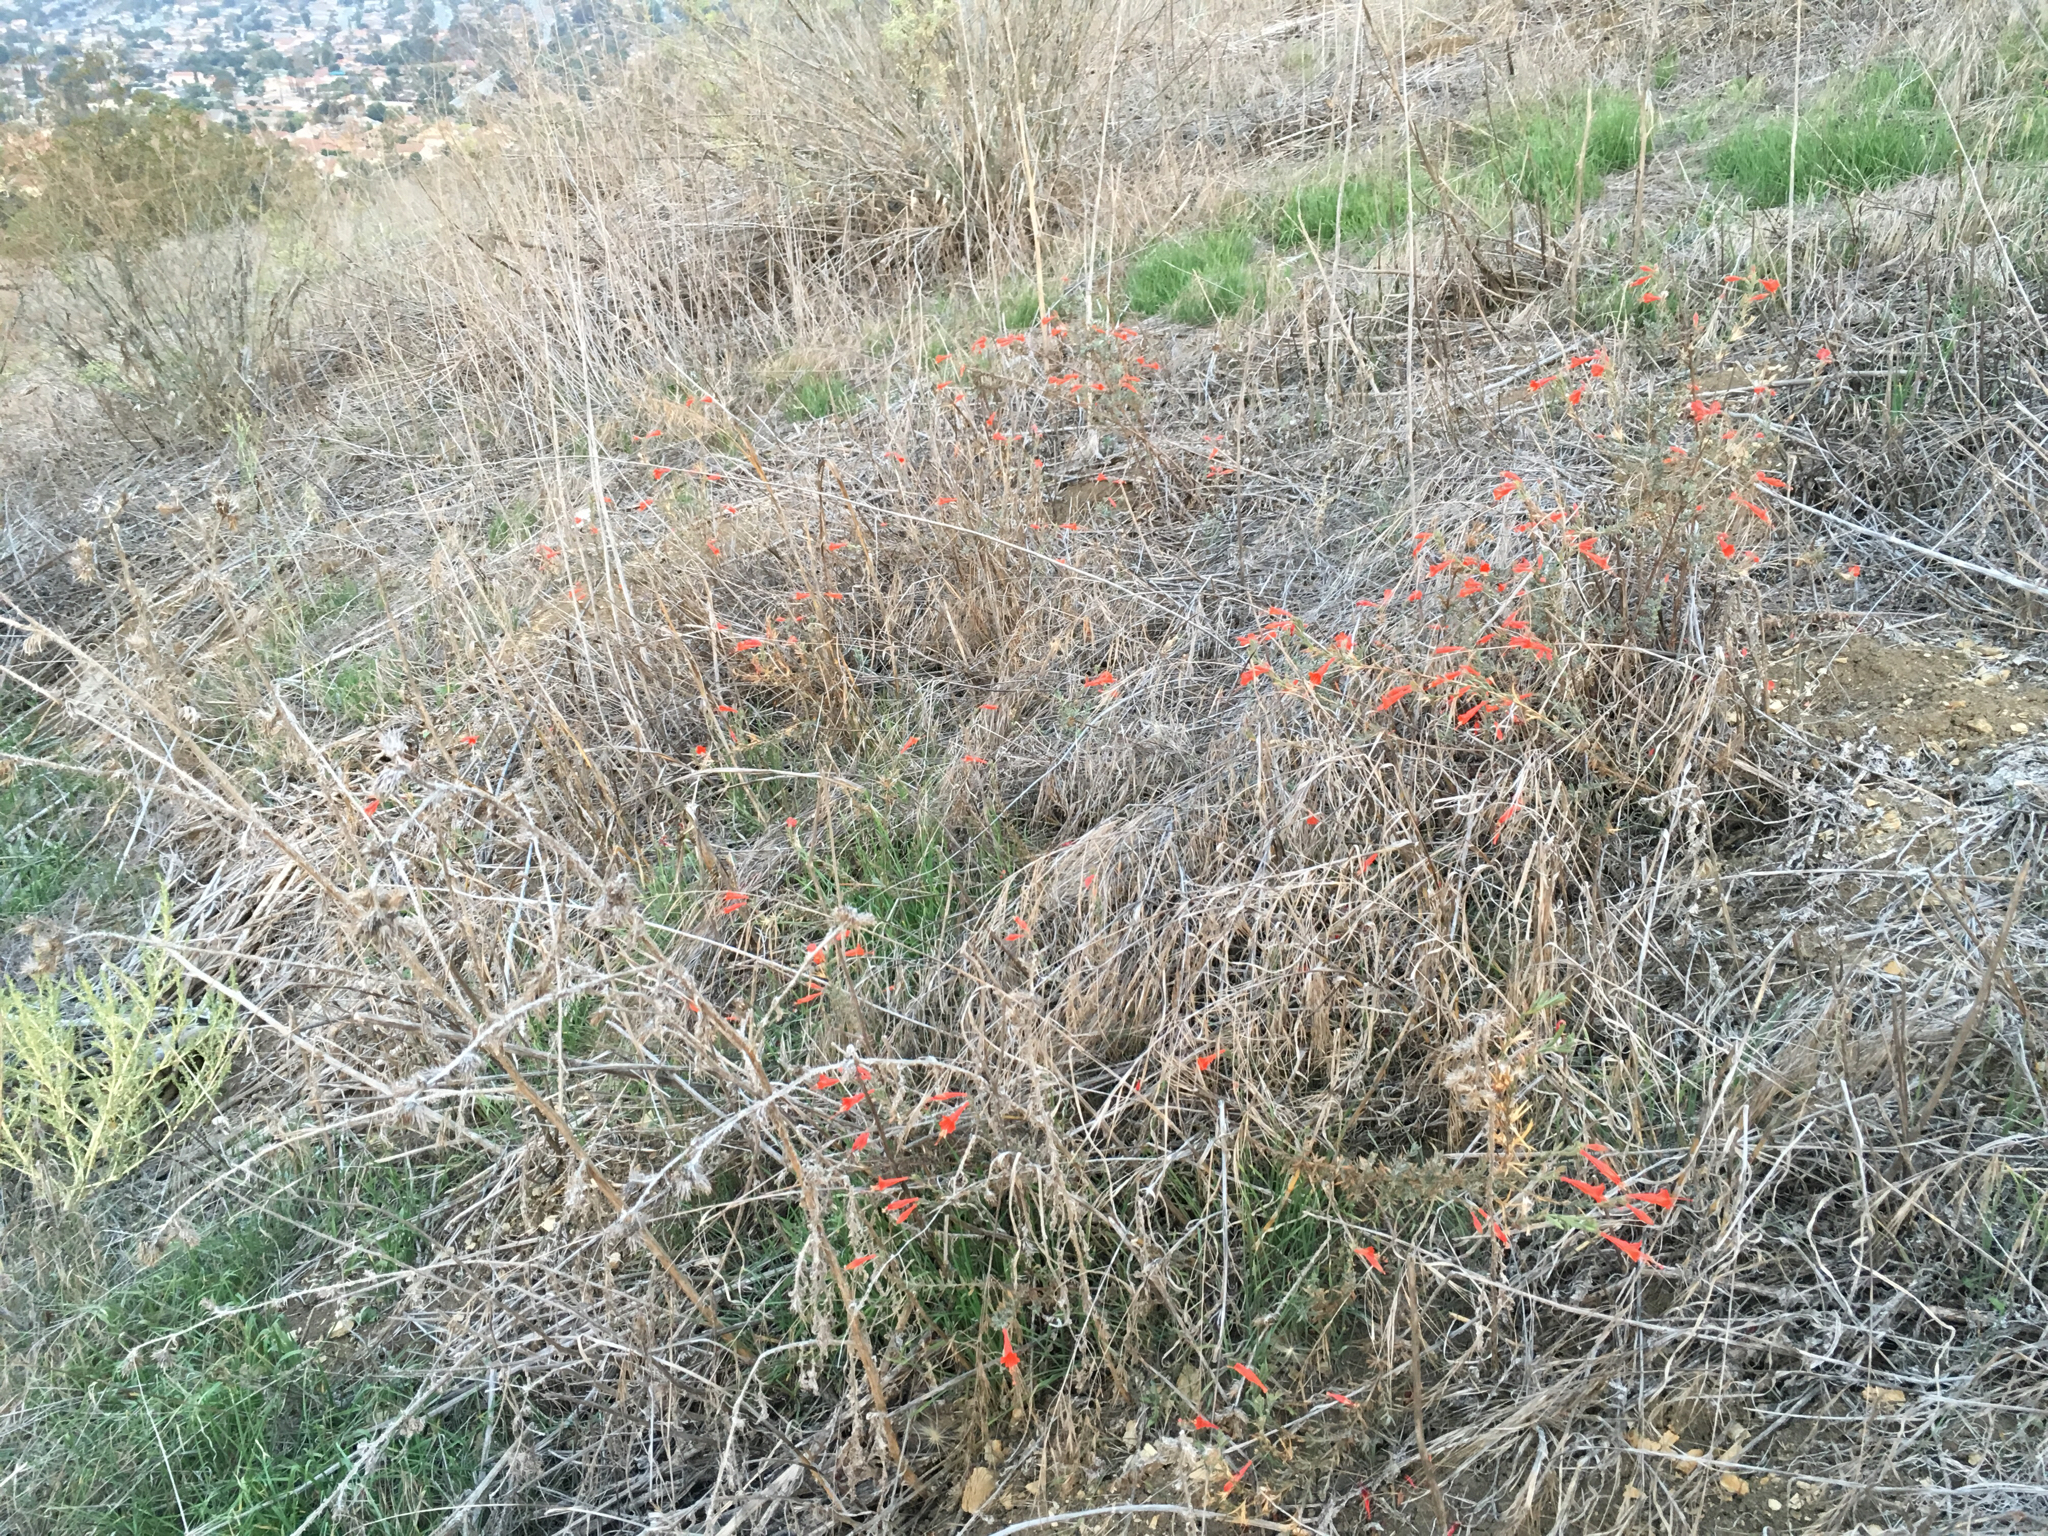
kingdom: Plantae
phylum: Tracheophyta
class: Magnoliopsida
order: Myrtales
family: Onagraceae
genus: Epilobium
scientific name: Epilobium canum
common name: California-fuchsia
